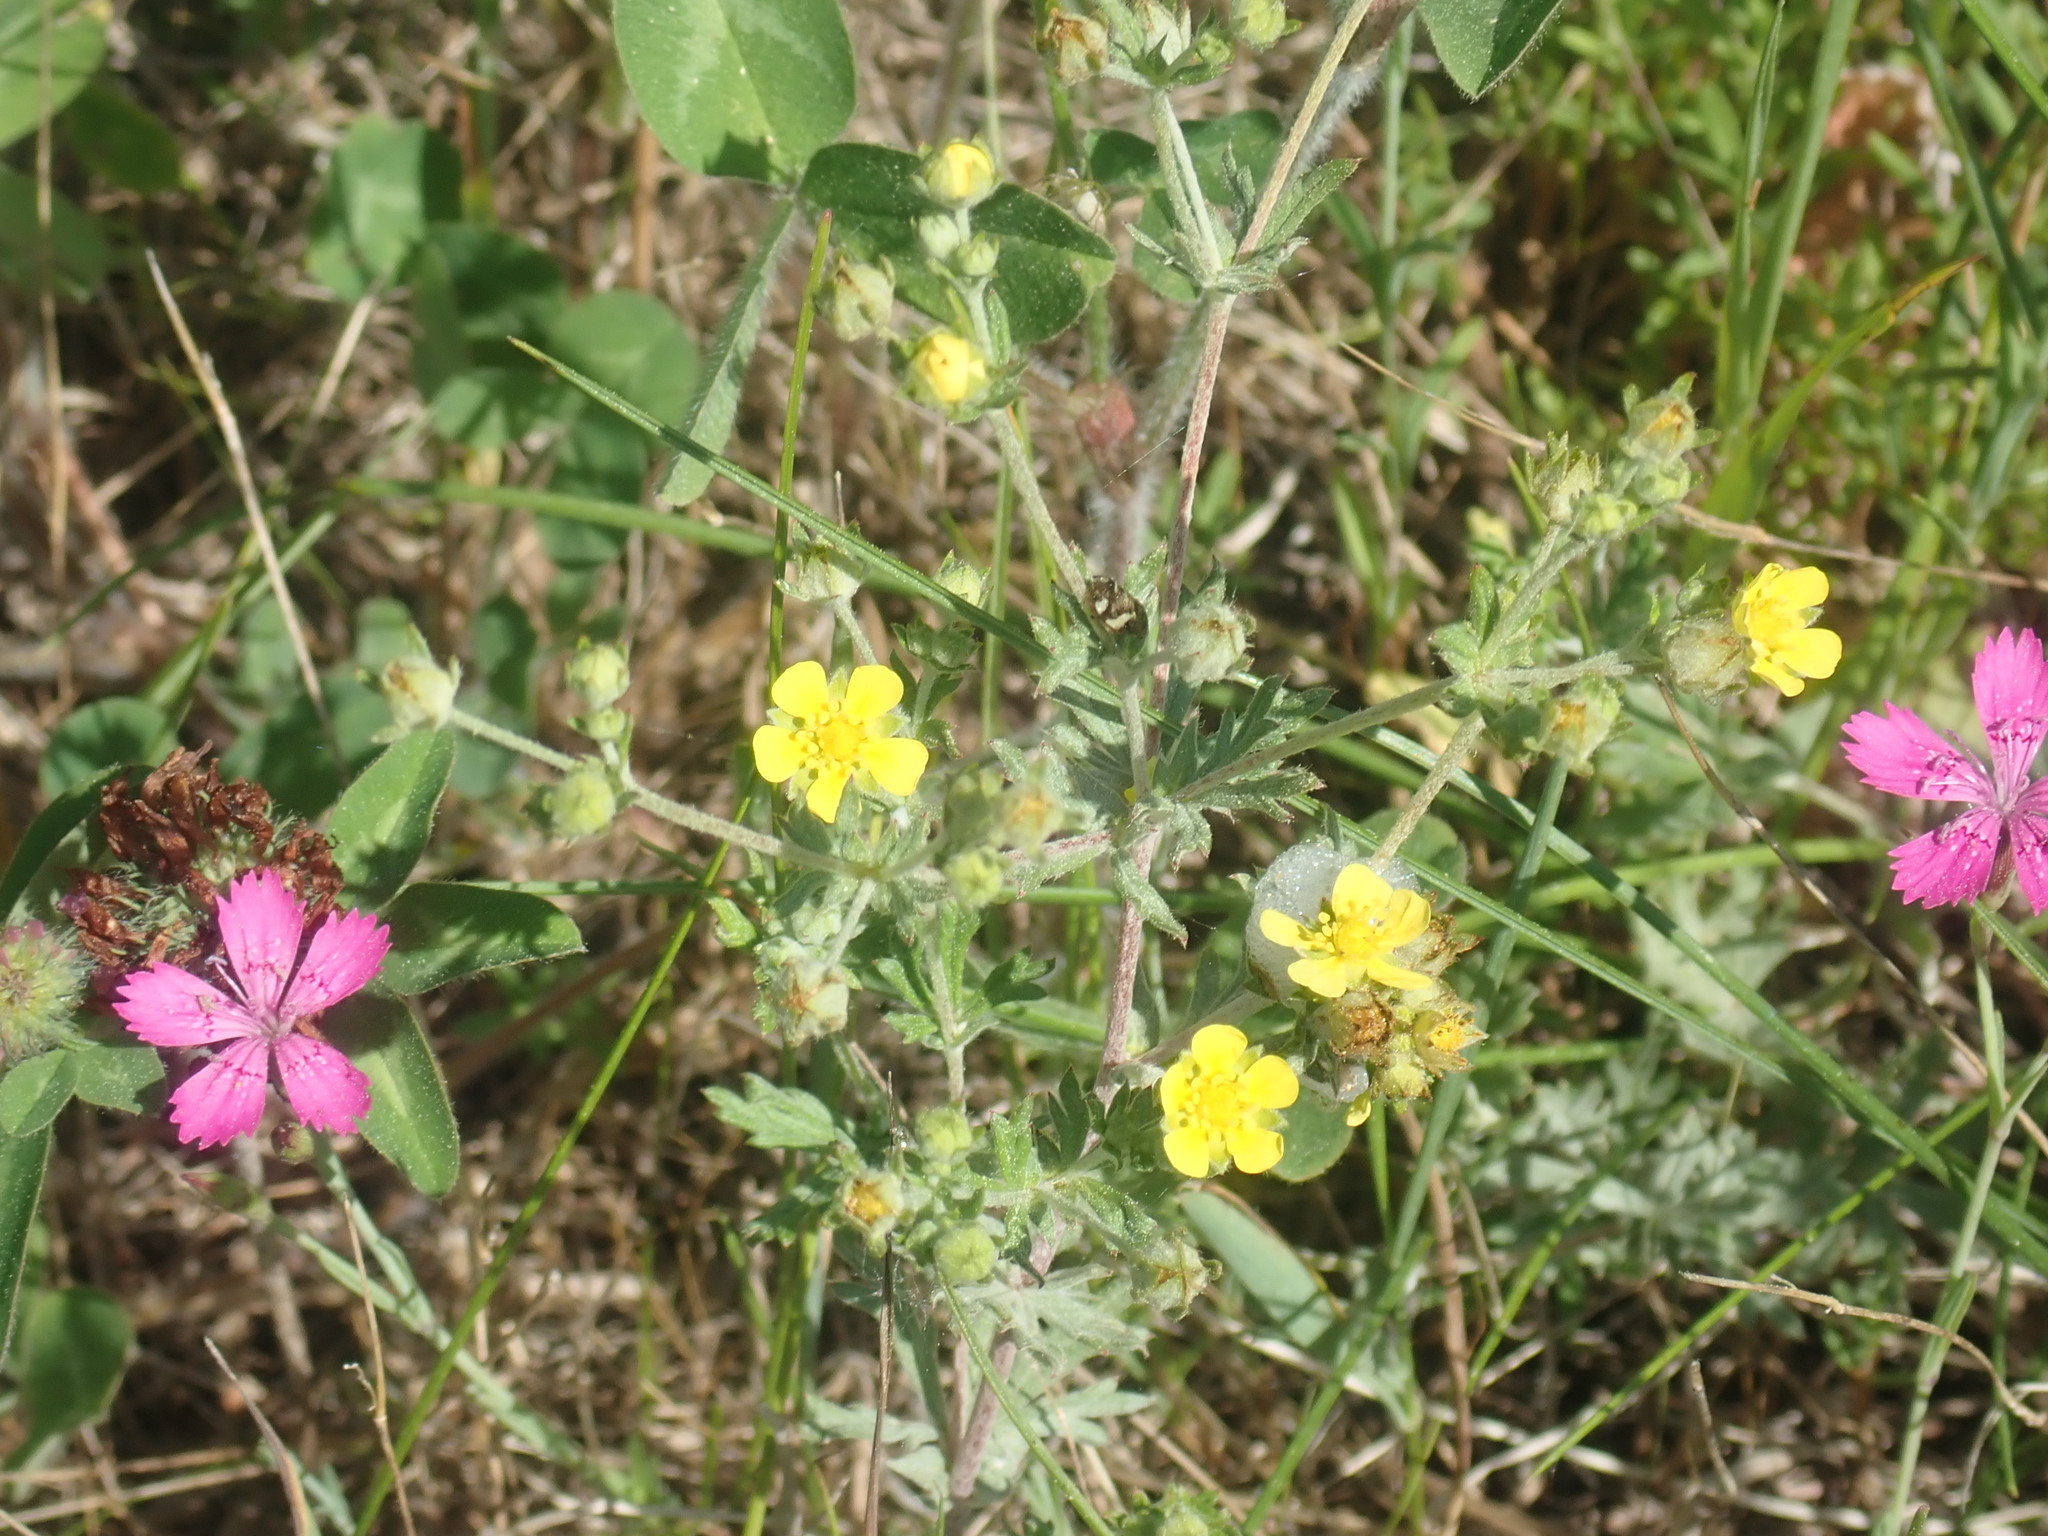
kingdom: Plantae
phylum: Tracheophyta
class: Magnoliopsida
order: Rosales
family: Rosaceae
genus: Potentilla
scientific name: Potentilla argentea
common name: Hoary cinquefoil
